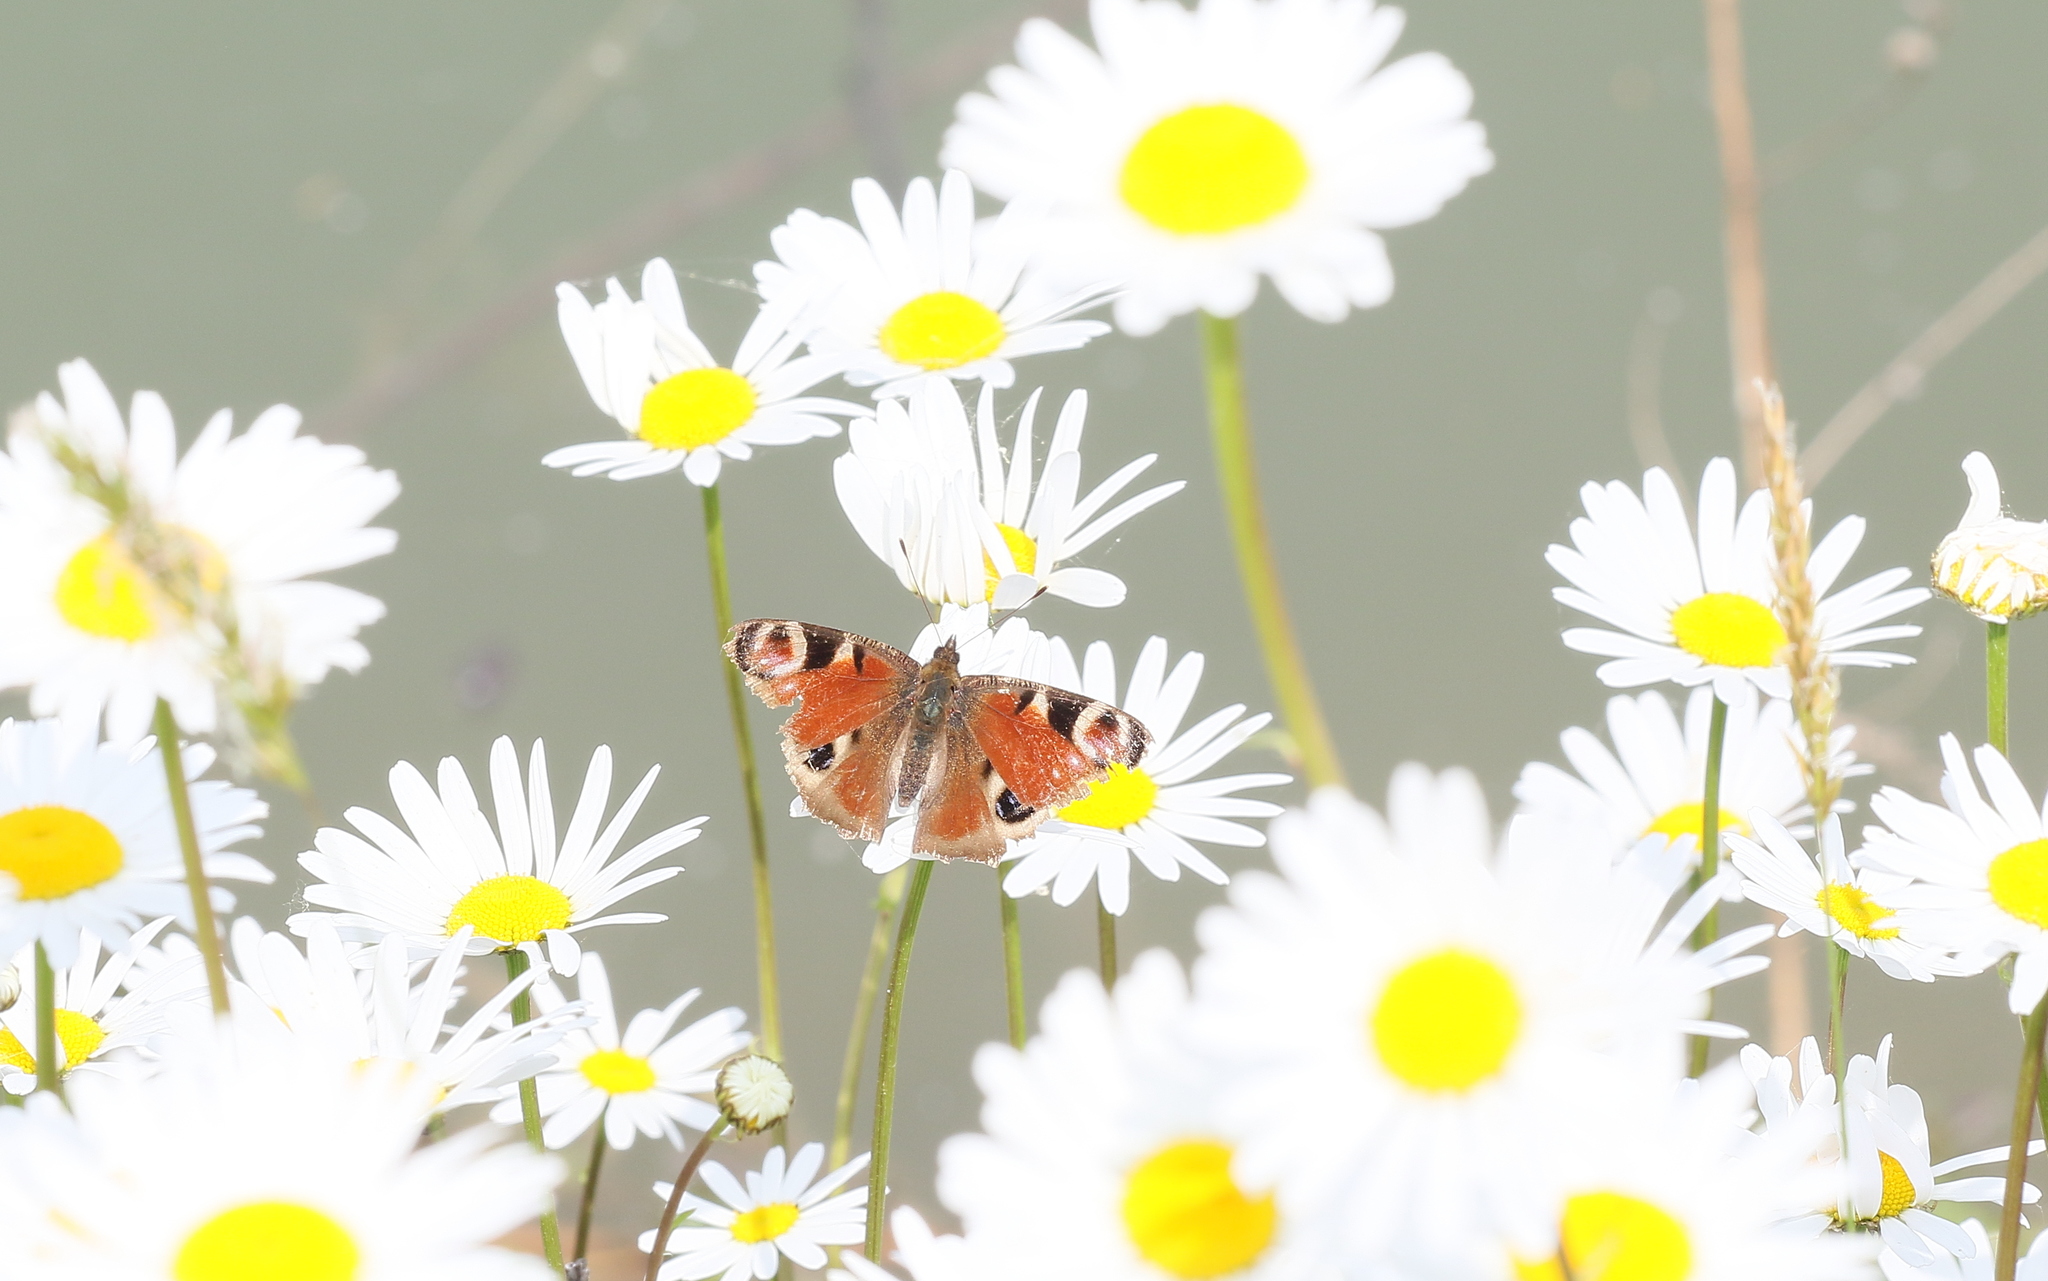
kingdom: Animalia
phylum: Arthropoda
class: Insecta
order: Lepidoptera
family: Nymphalidae
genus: Aglais
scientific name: Aglais io
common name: Peacock
